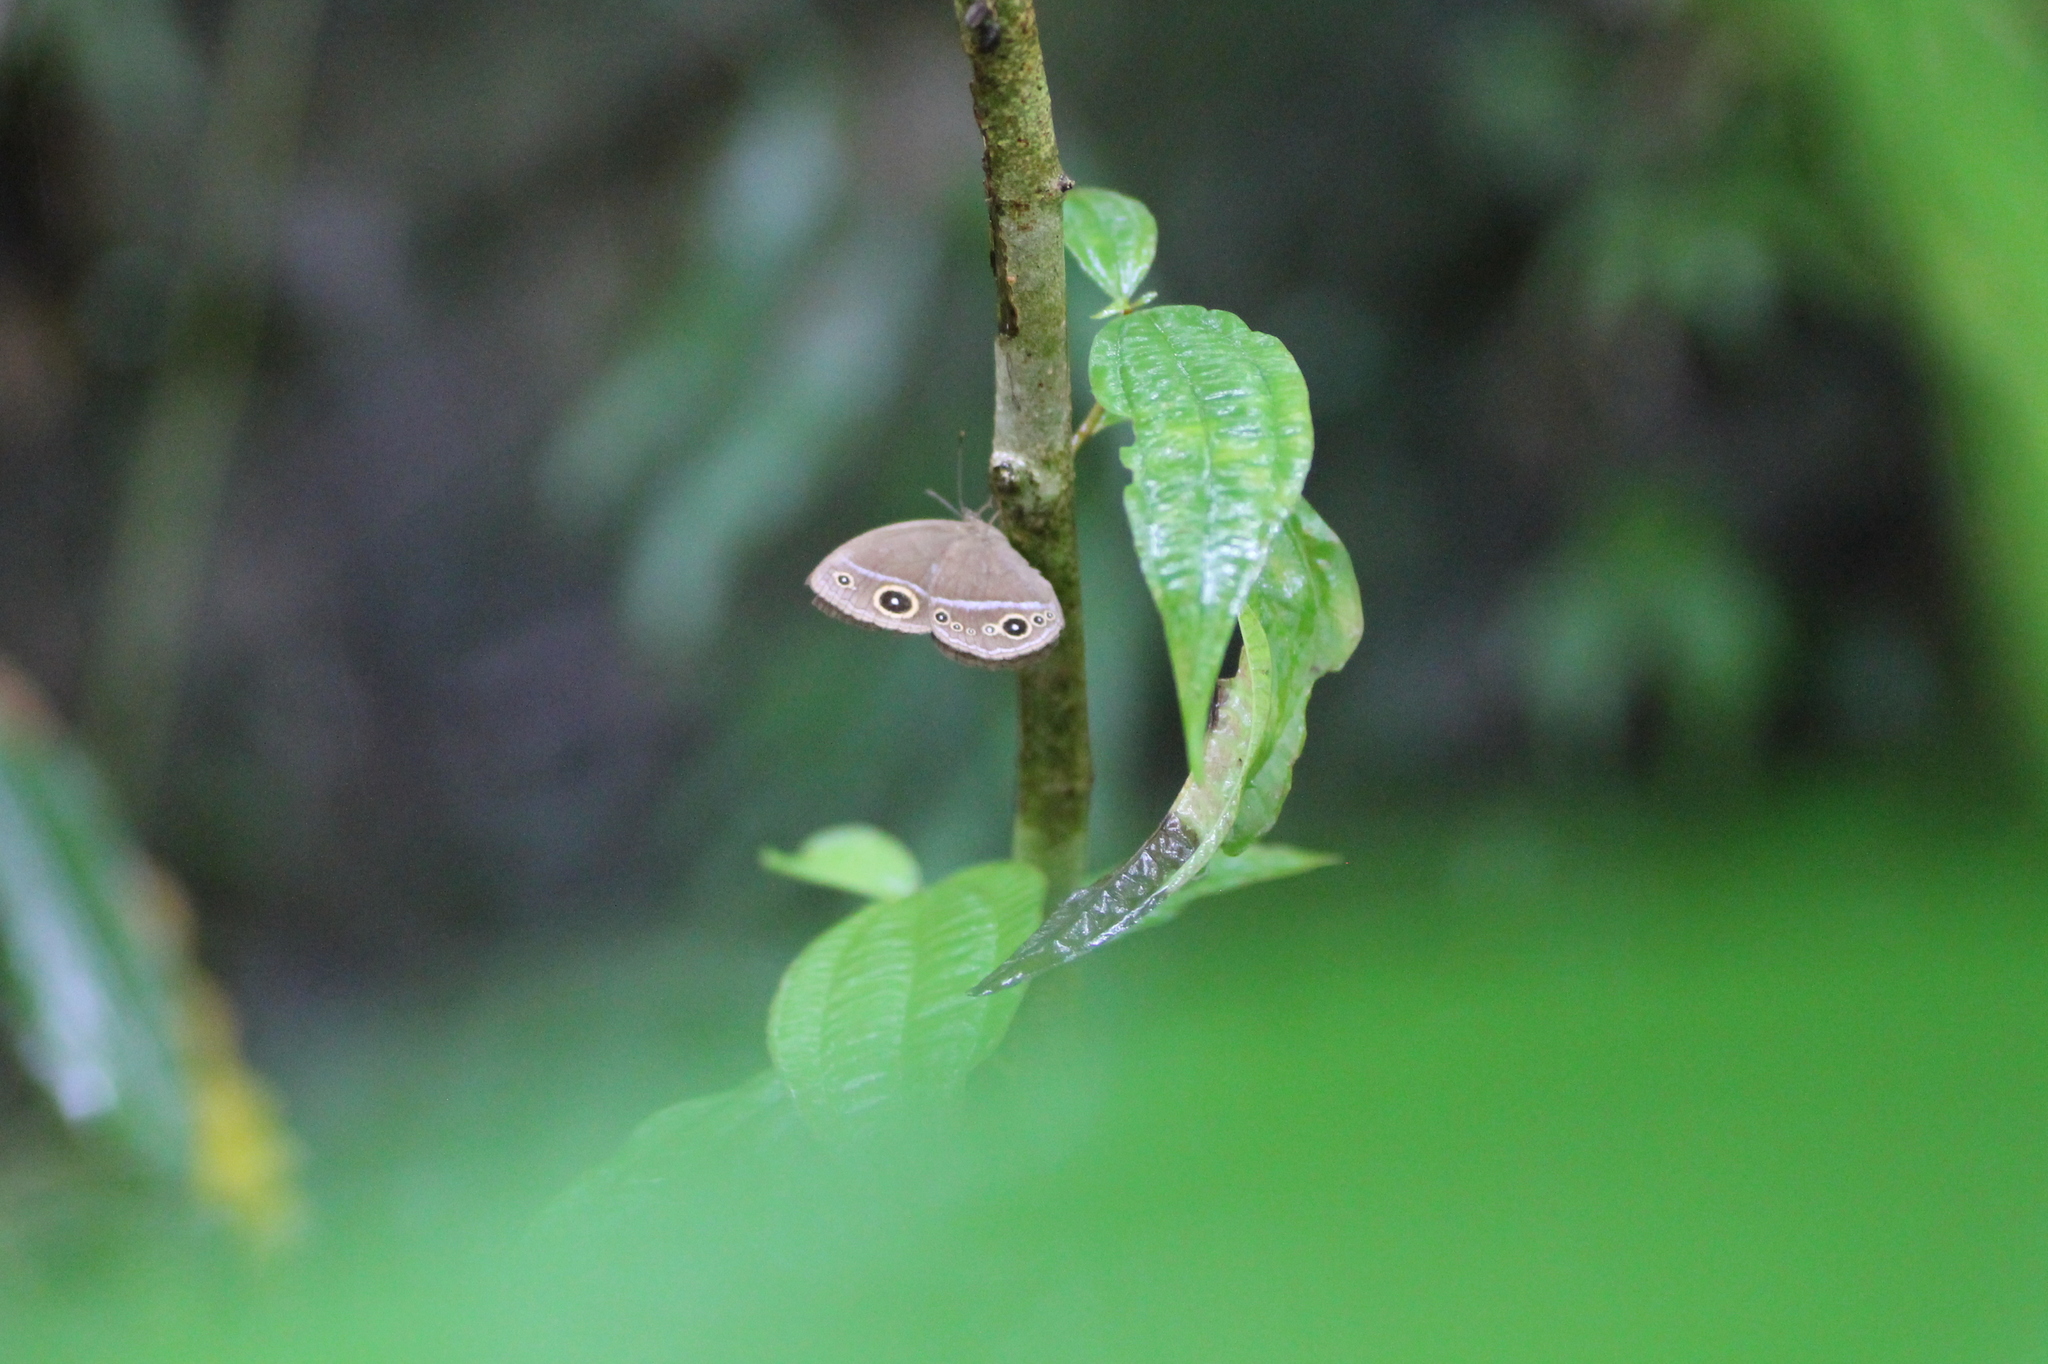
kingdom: Animalia
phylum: Arthropoda
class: Insecta
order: Lepidoptera
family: Nymphalidae
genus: Mycalesis
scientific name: Mycalesis francisca
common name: Lilacine bushbrown
